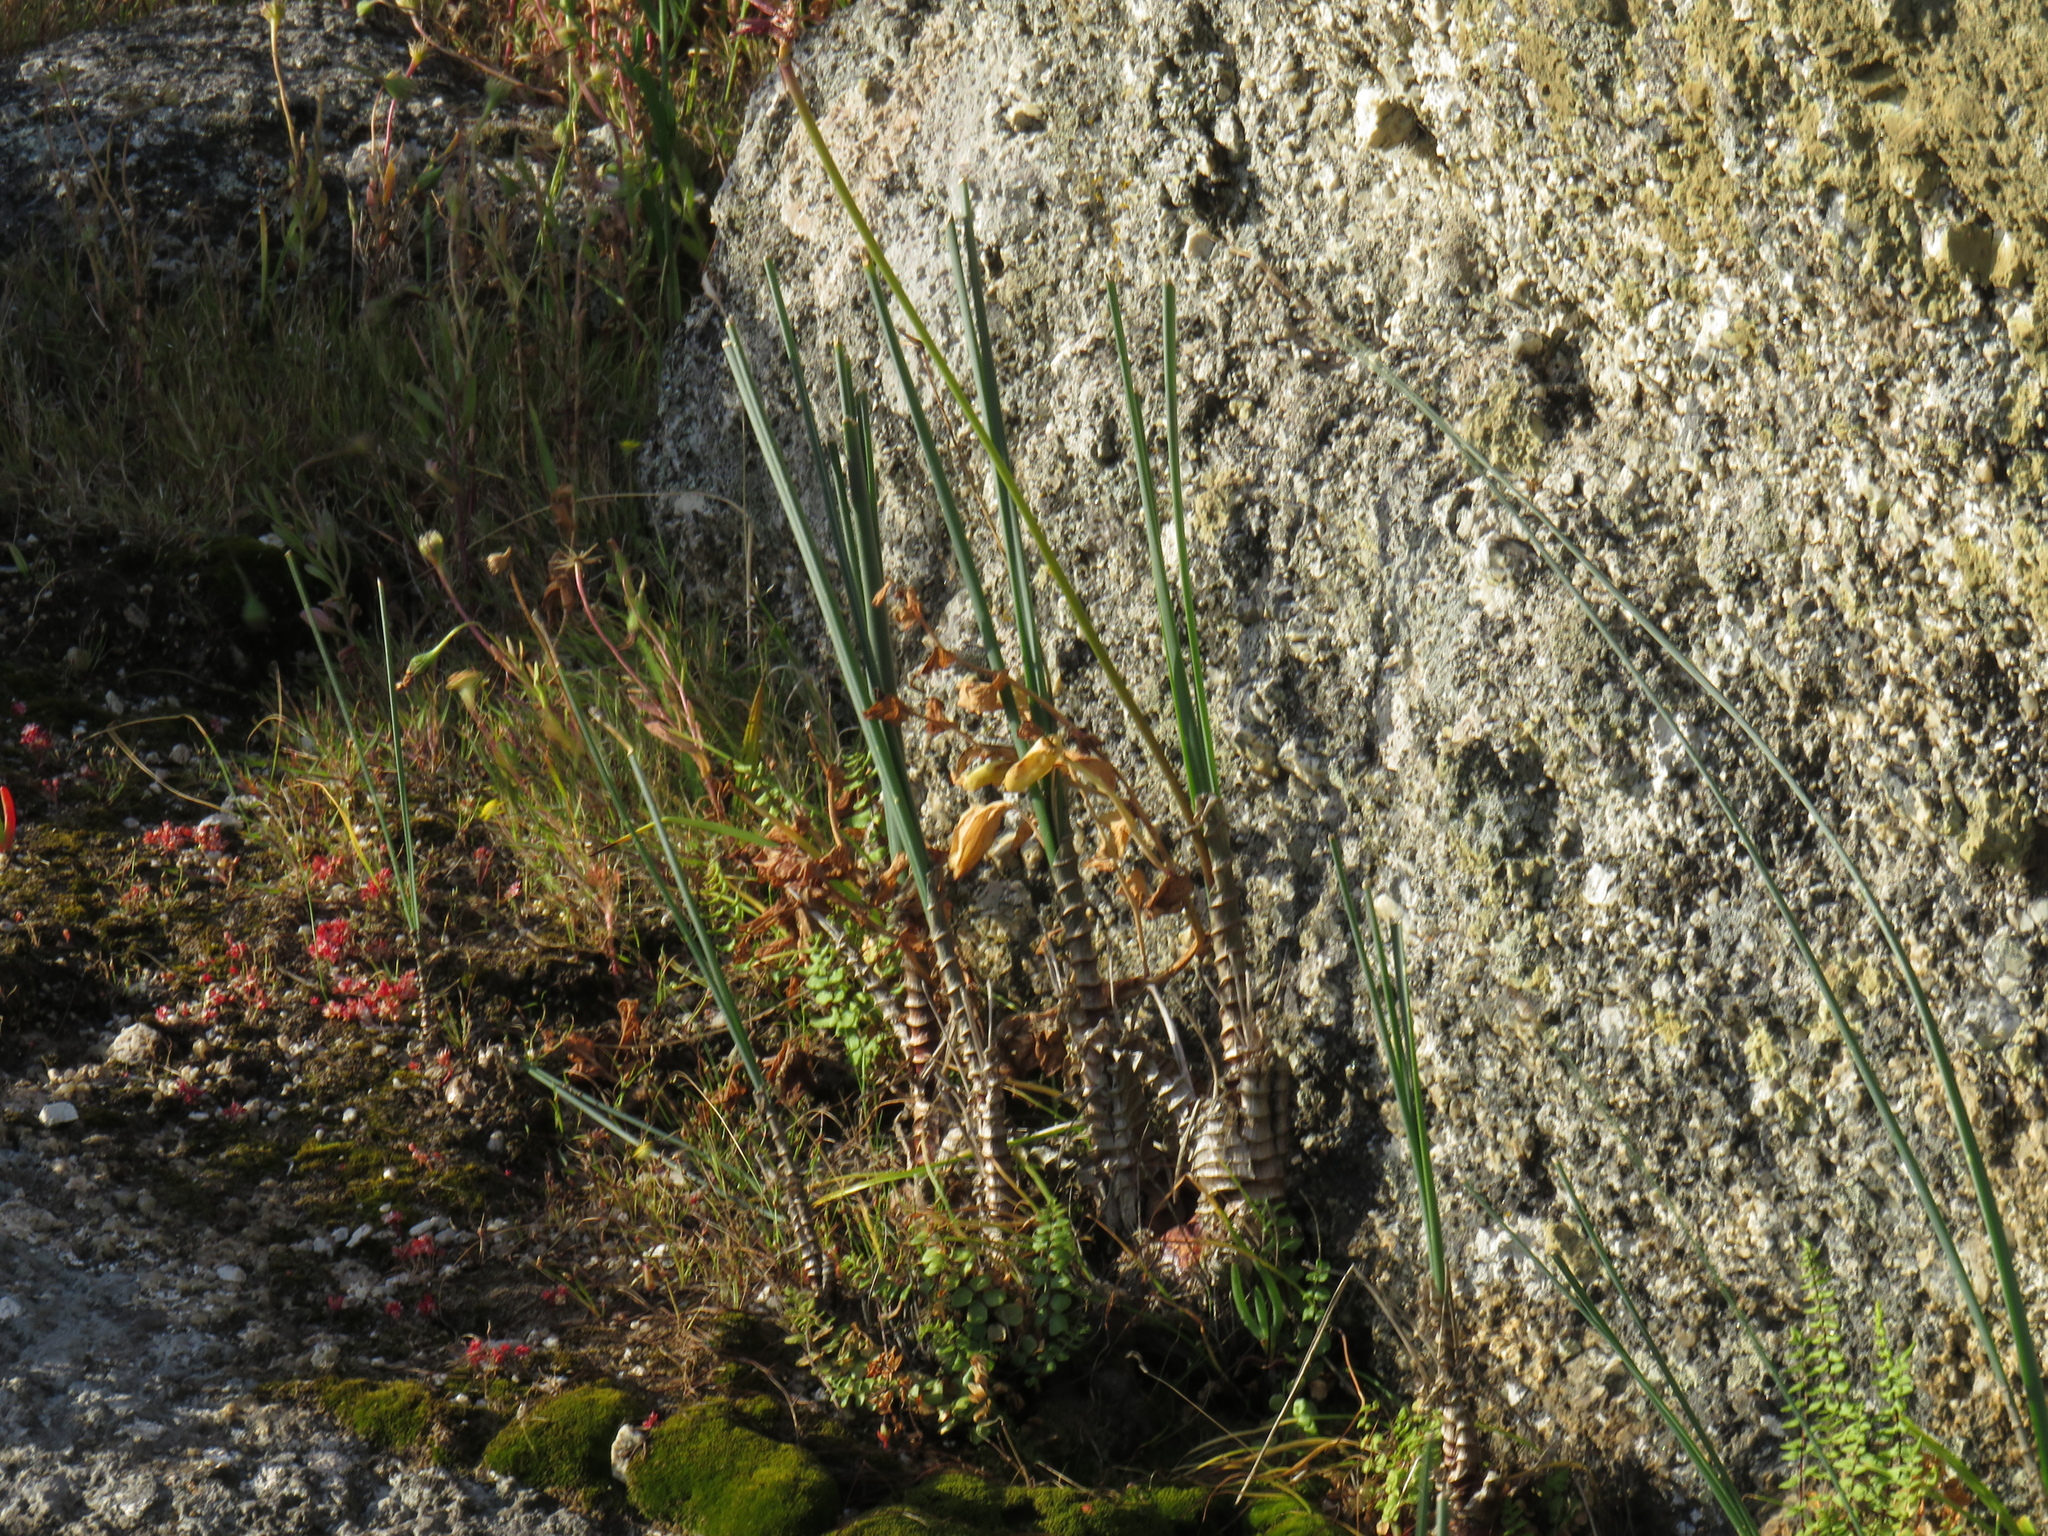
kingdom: Plantae
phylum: Tracheophyta
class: Liliopsida
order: Asparagales
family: Asparagaceae
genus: Drimia
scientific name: Drimia exuviata
